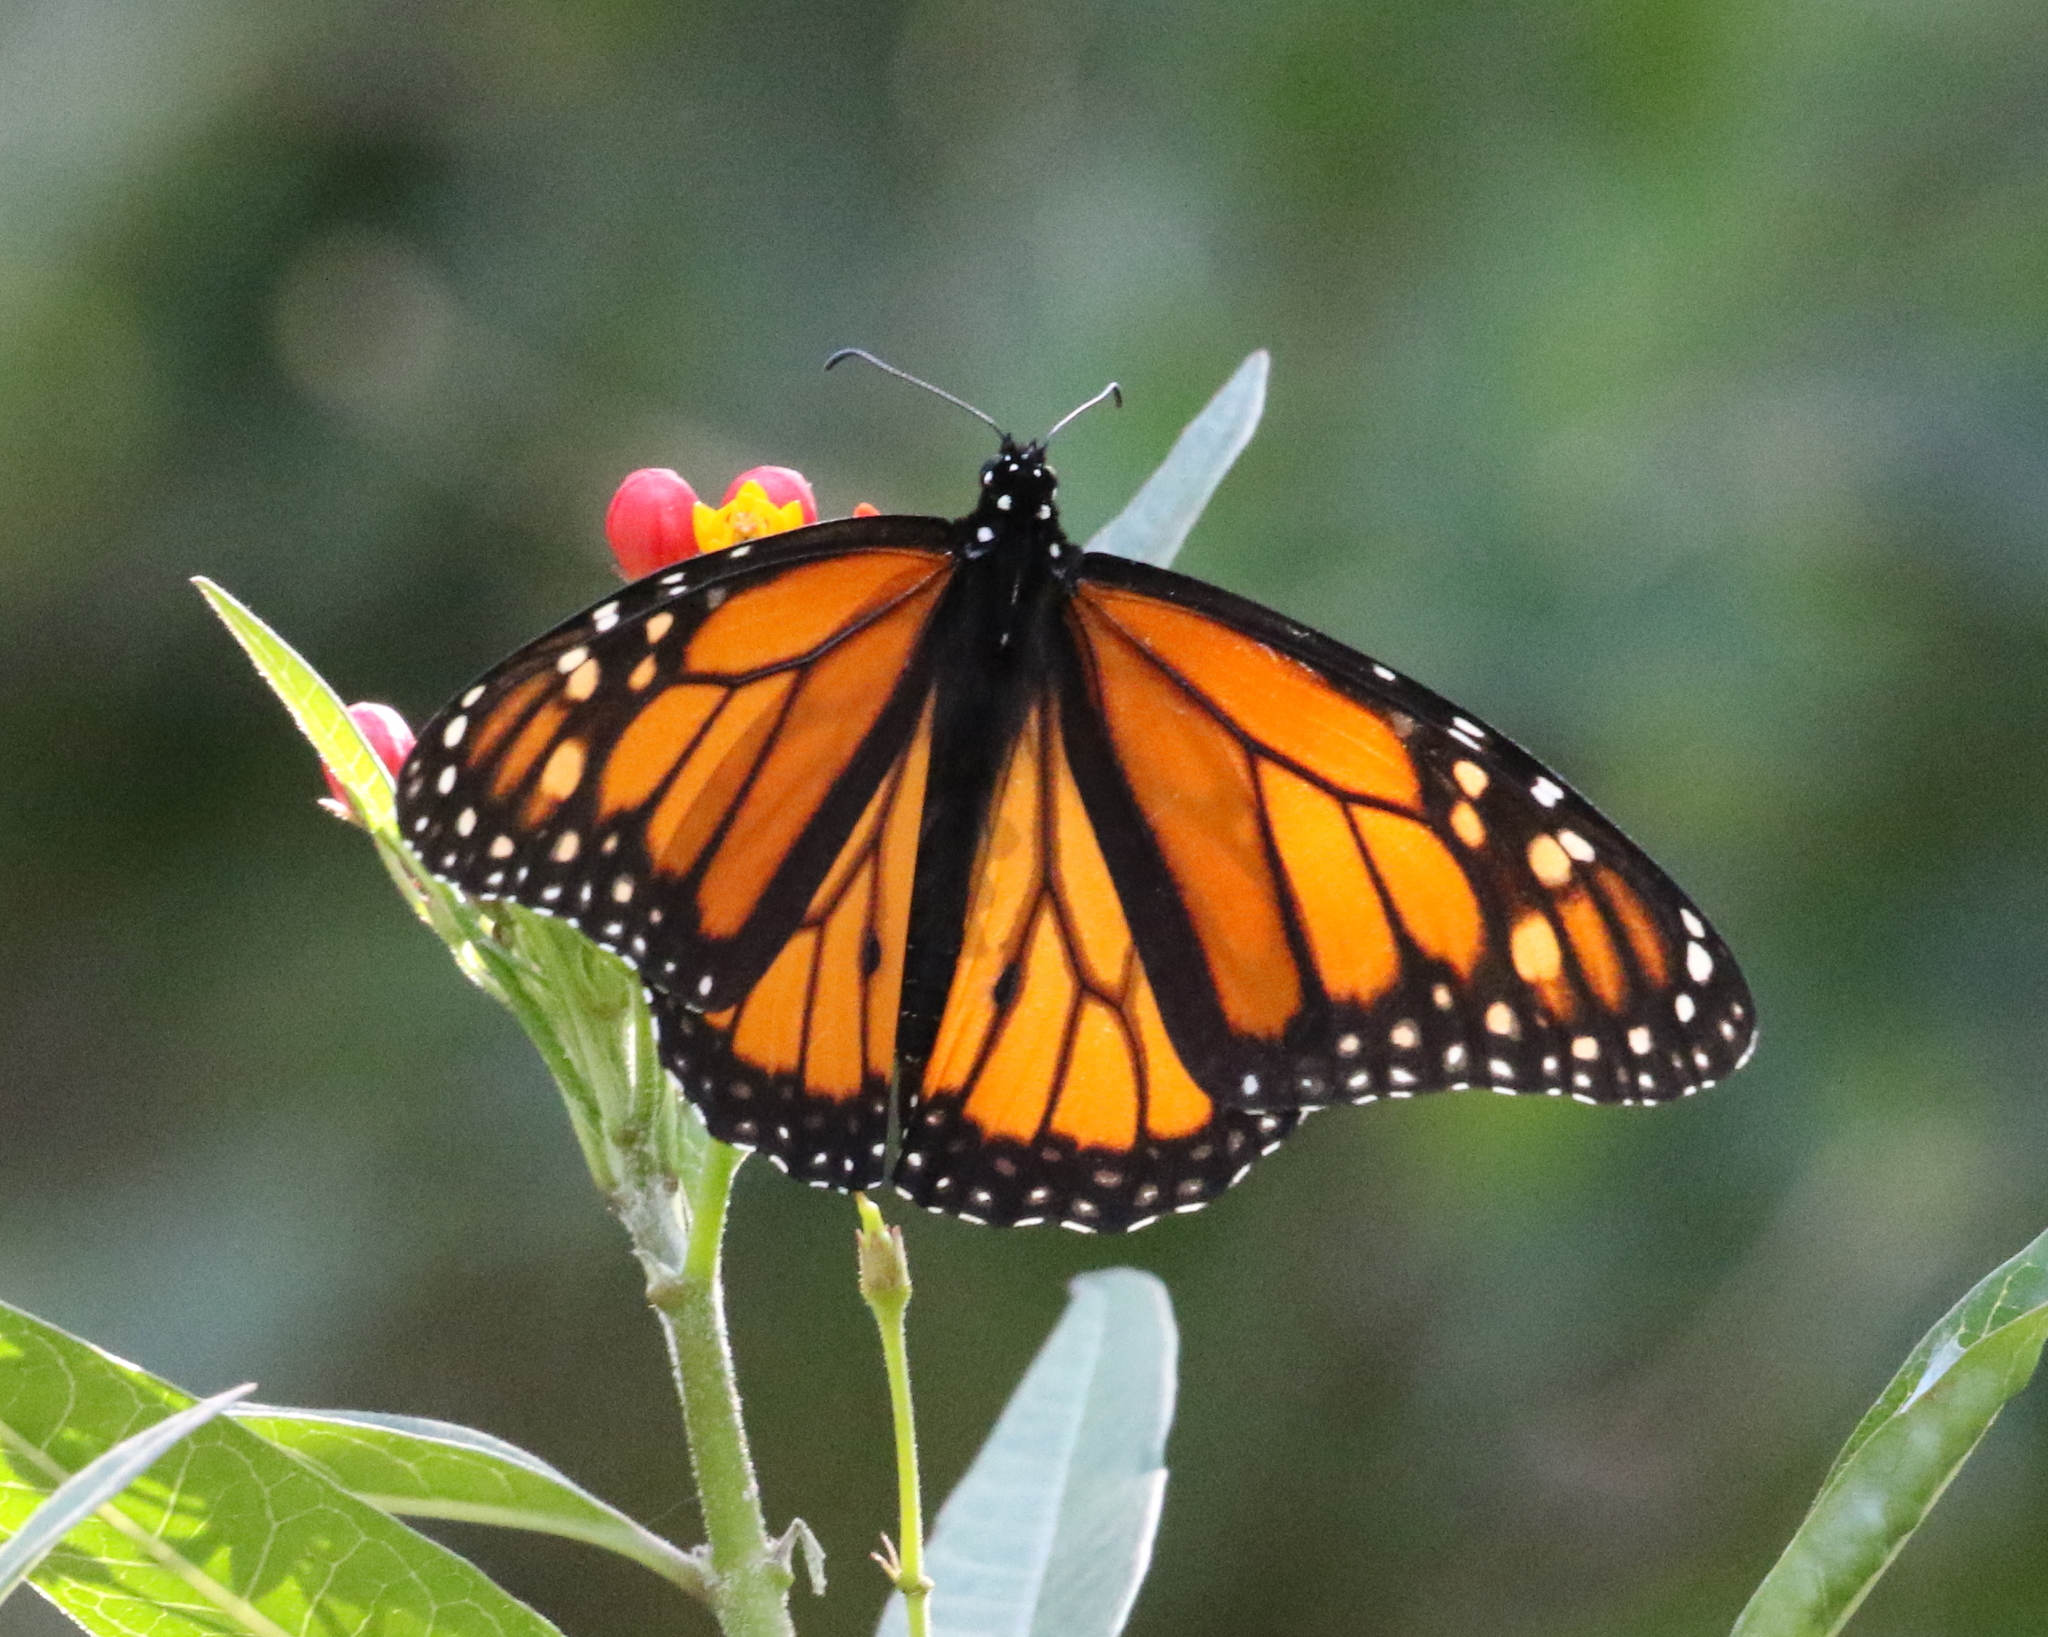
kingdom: Animalia
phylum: Arthropoda
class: Insecta
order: Lepidoptera
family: Nymphalidae
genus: Danaus
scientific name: Danaus plexippus
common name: Monarch
